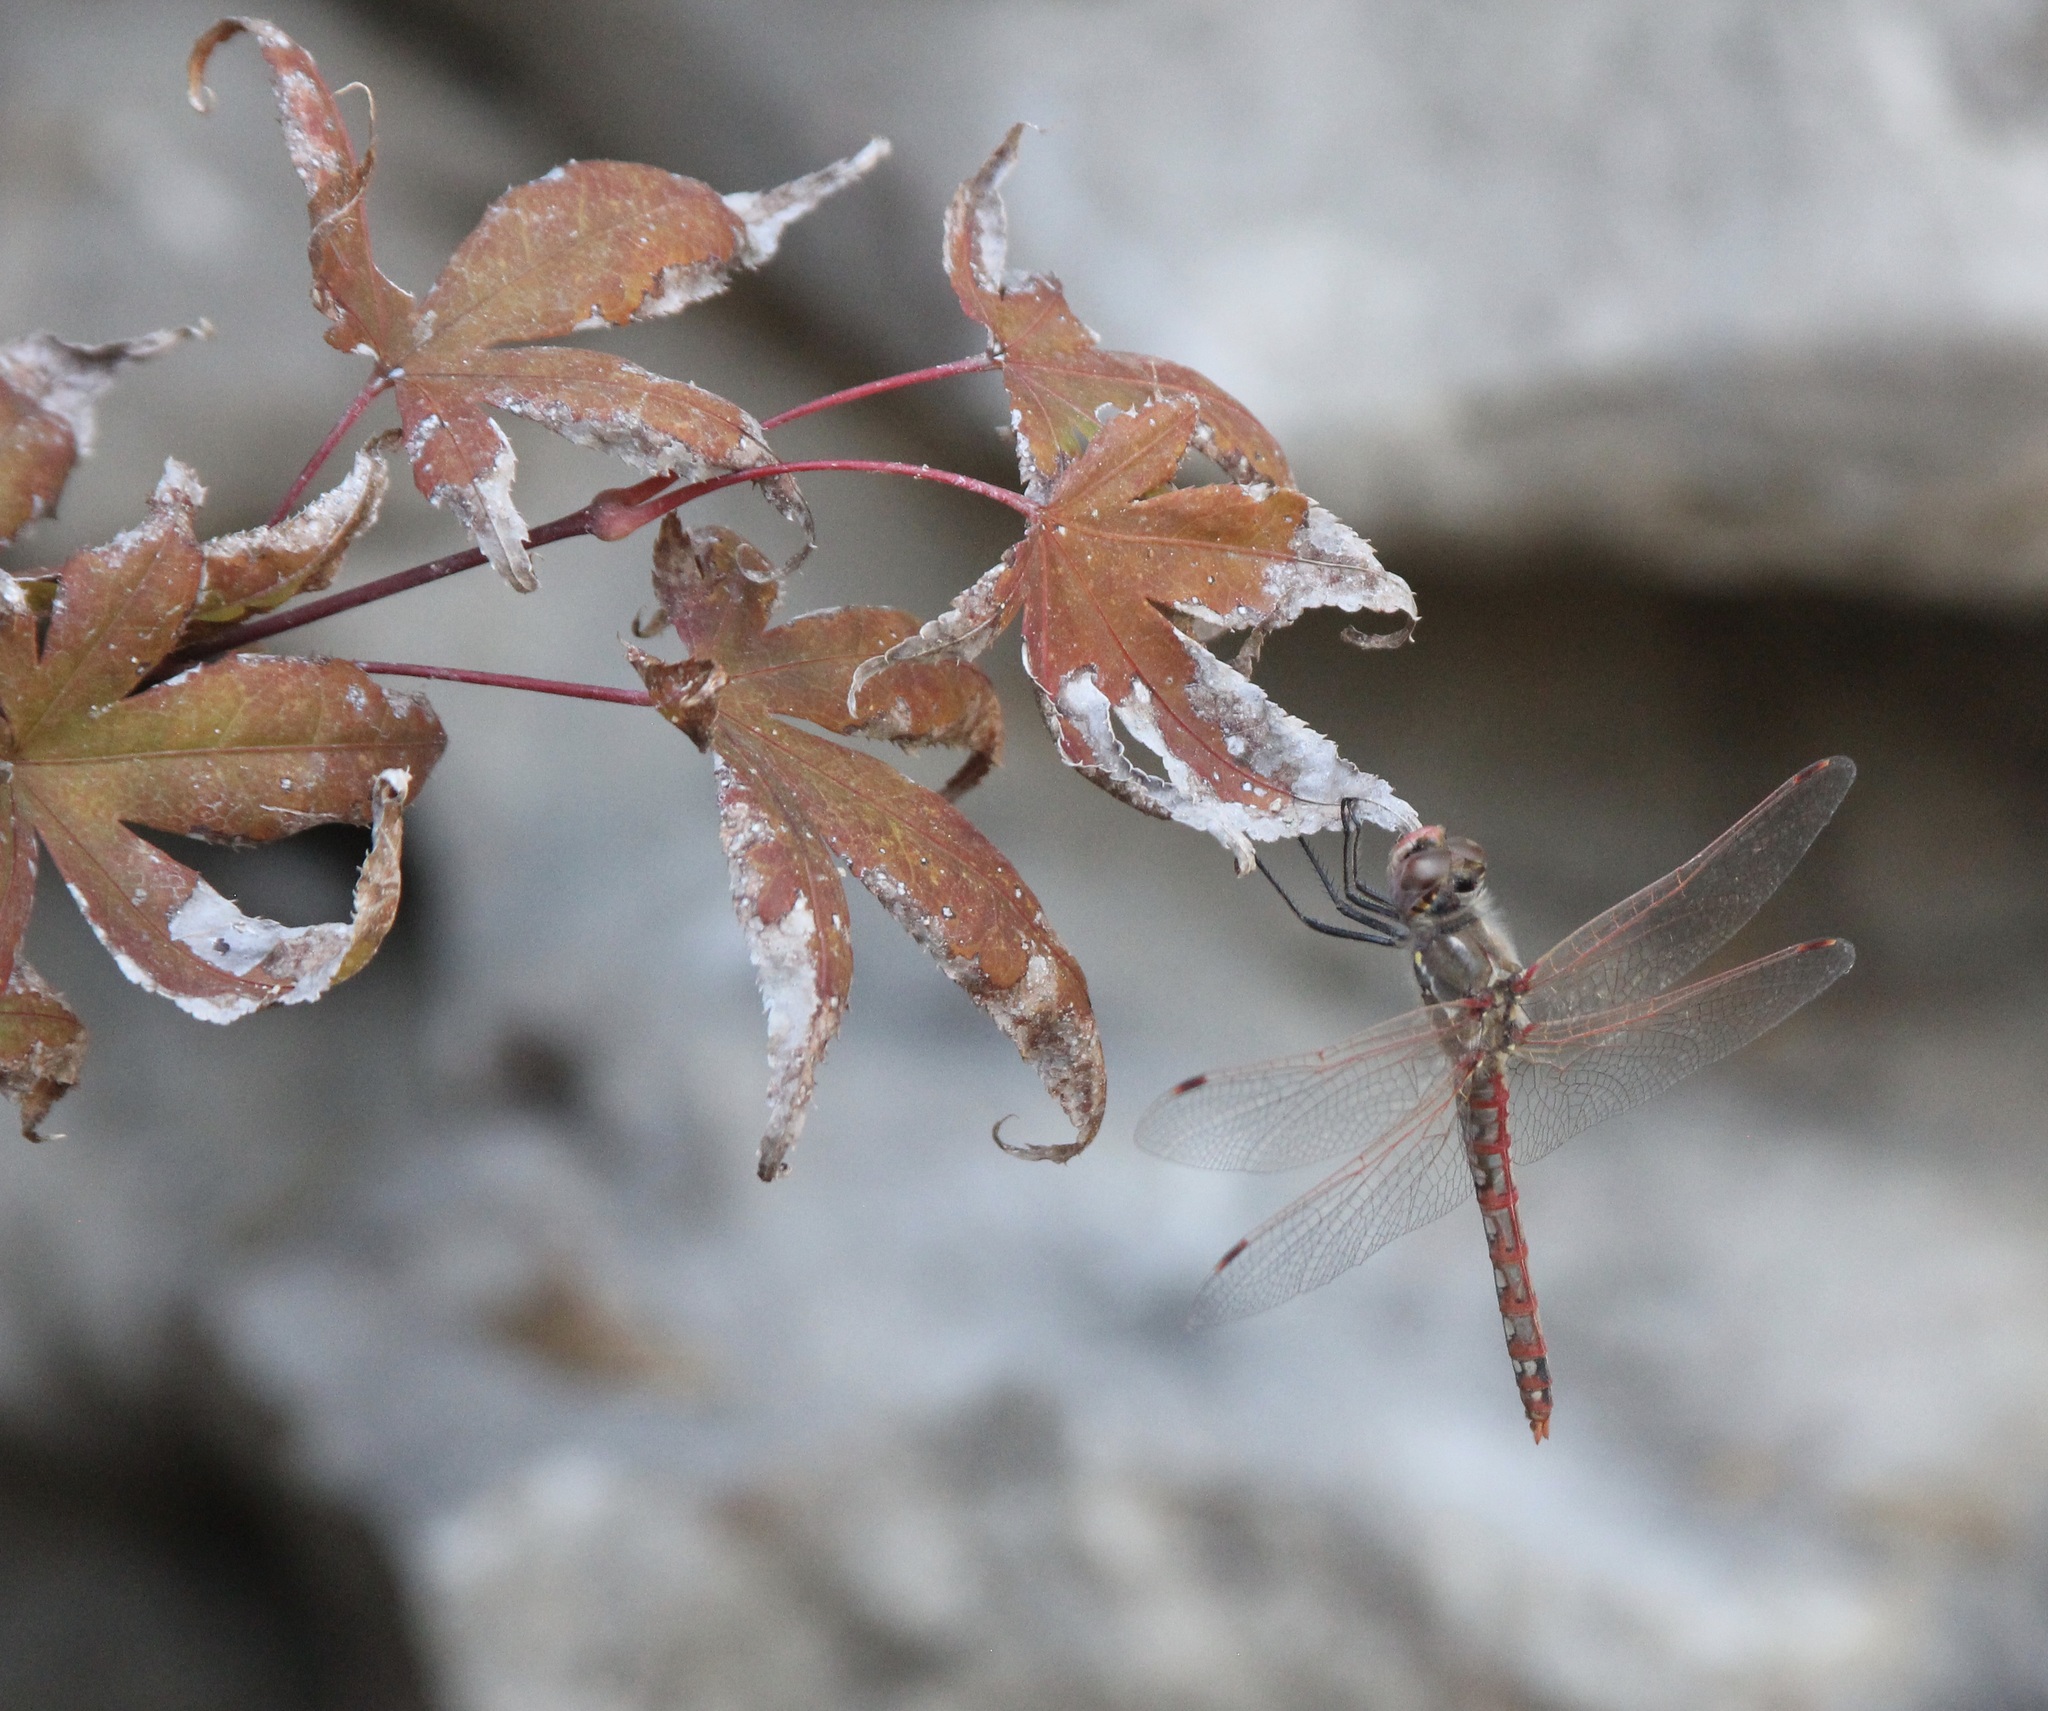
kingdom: Animalia
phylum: Arthropoda
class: Insecta
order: Odonata
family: Libellulidae
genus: Sympetrum
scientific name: Sympetrum corruptum
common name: Variegated meadowhawk
